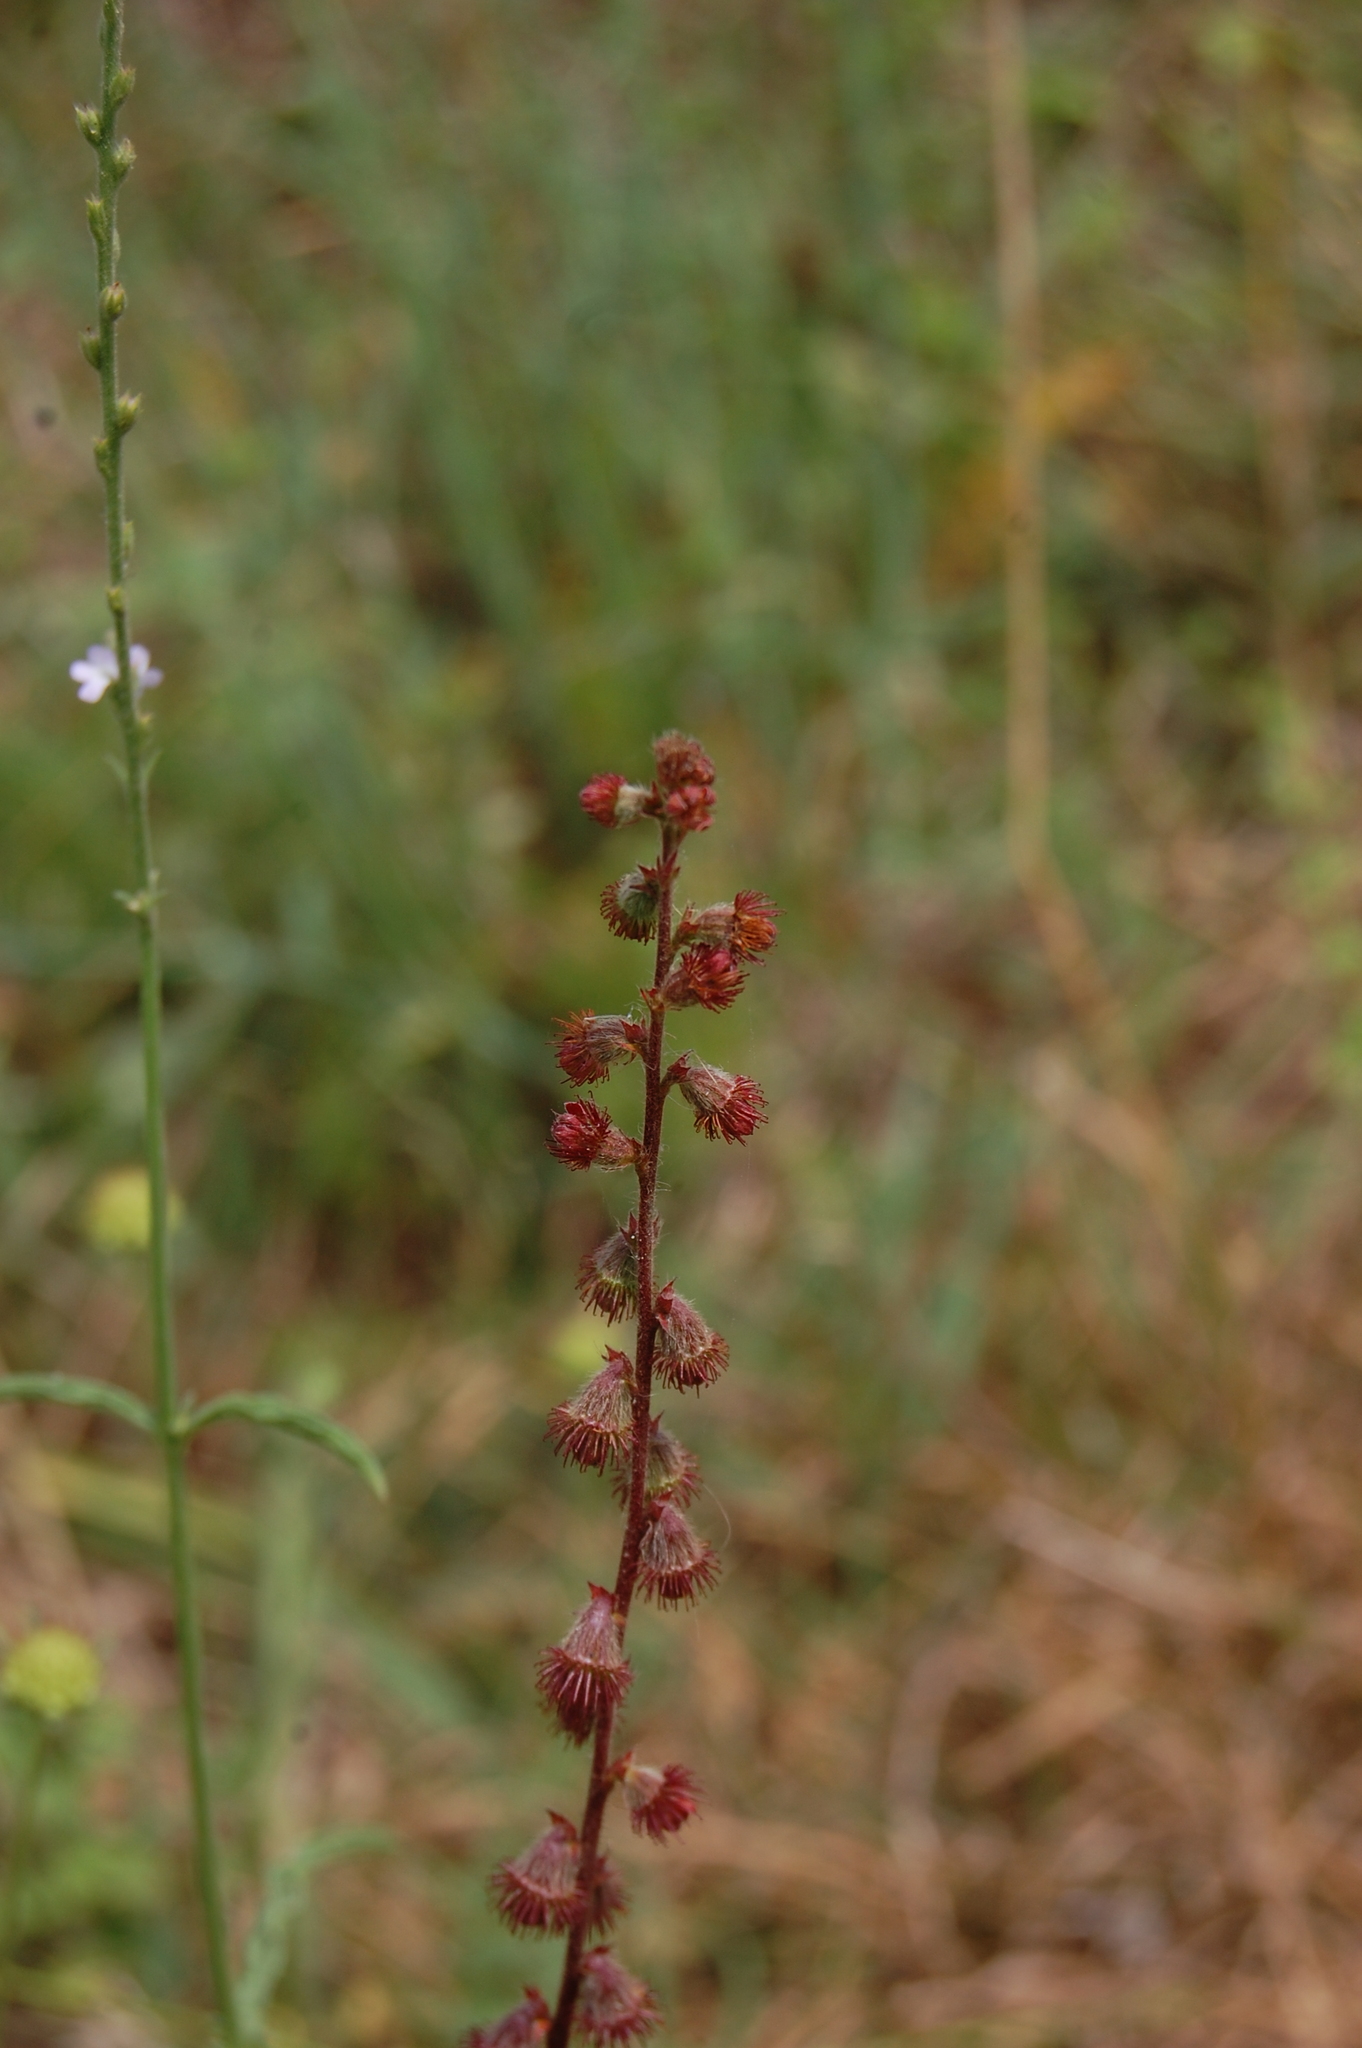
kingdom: Plantae
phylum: Tracheophyta
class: Magnoliopsida
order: Rosales
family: Rosaceae
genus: Agrimonia
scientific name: Agrimonia eupatoria
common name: Agrimony
